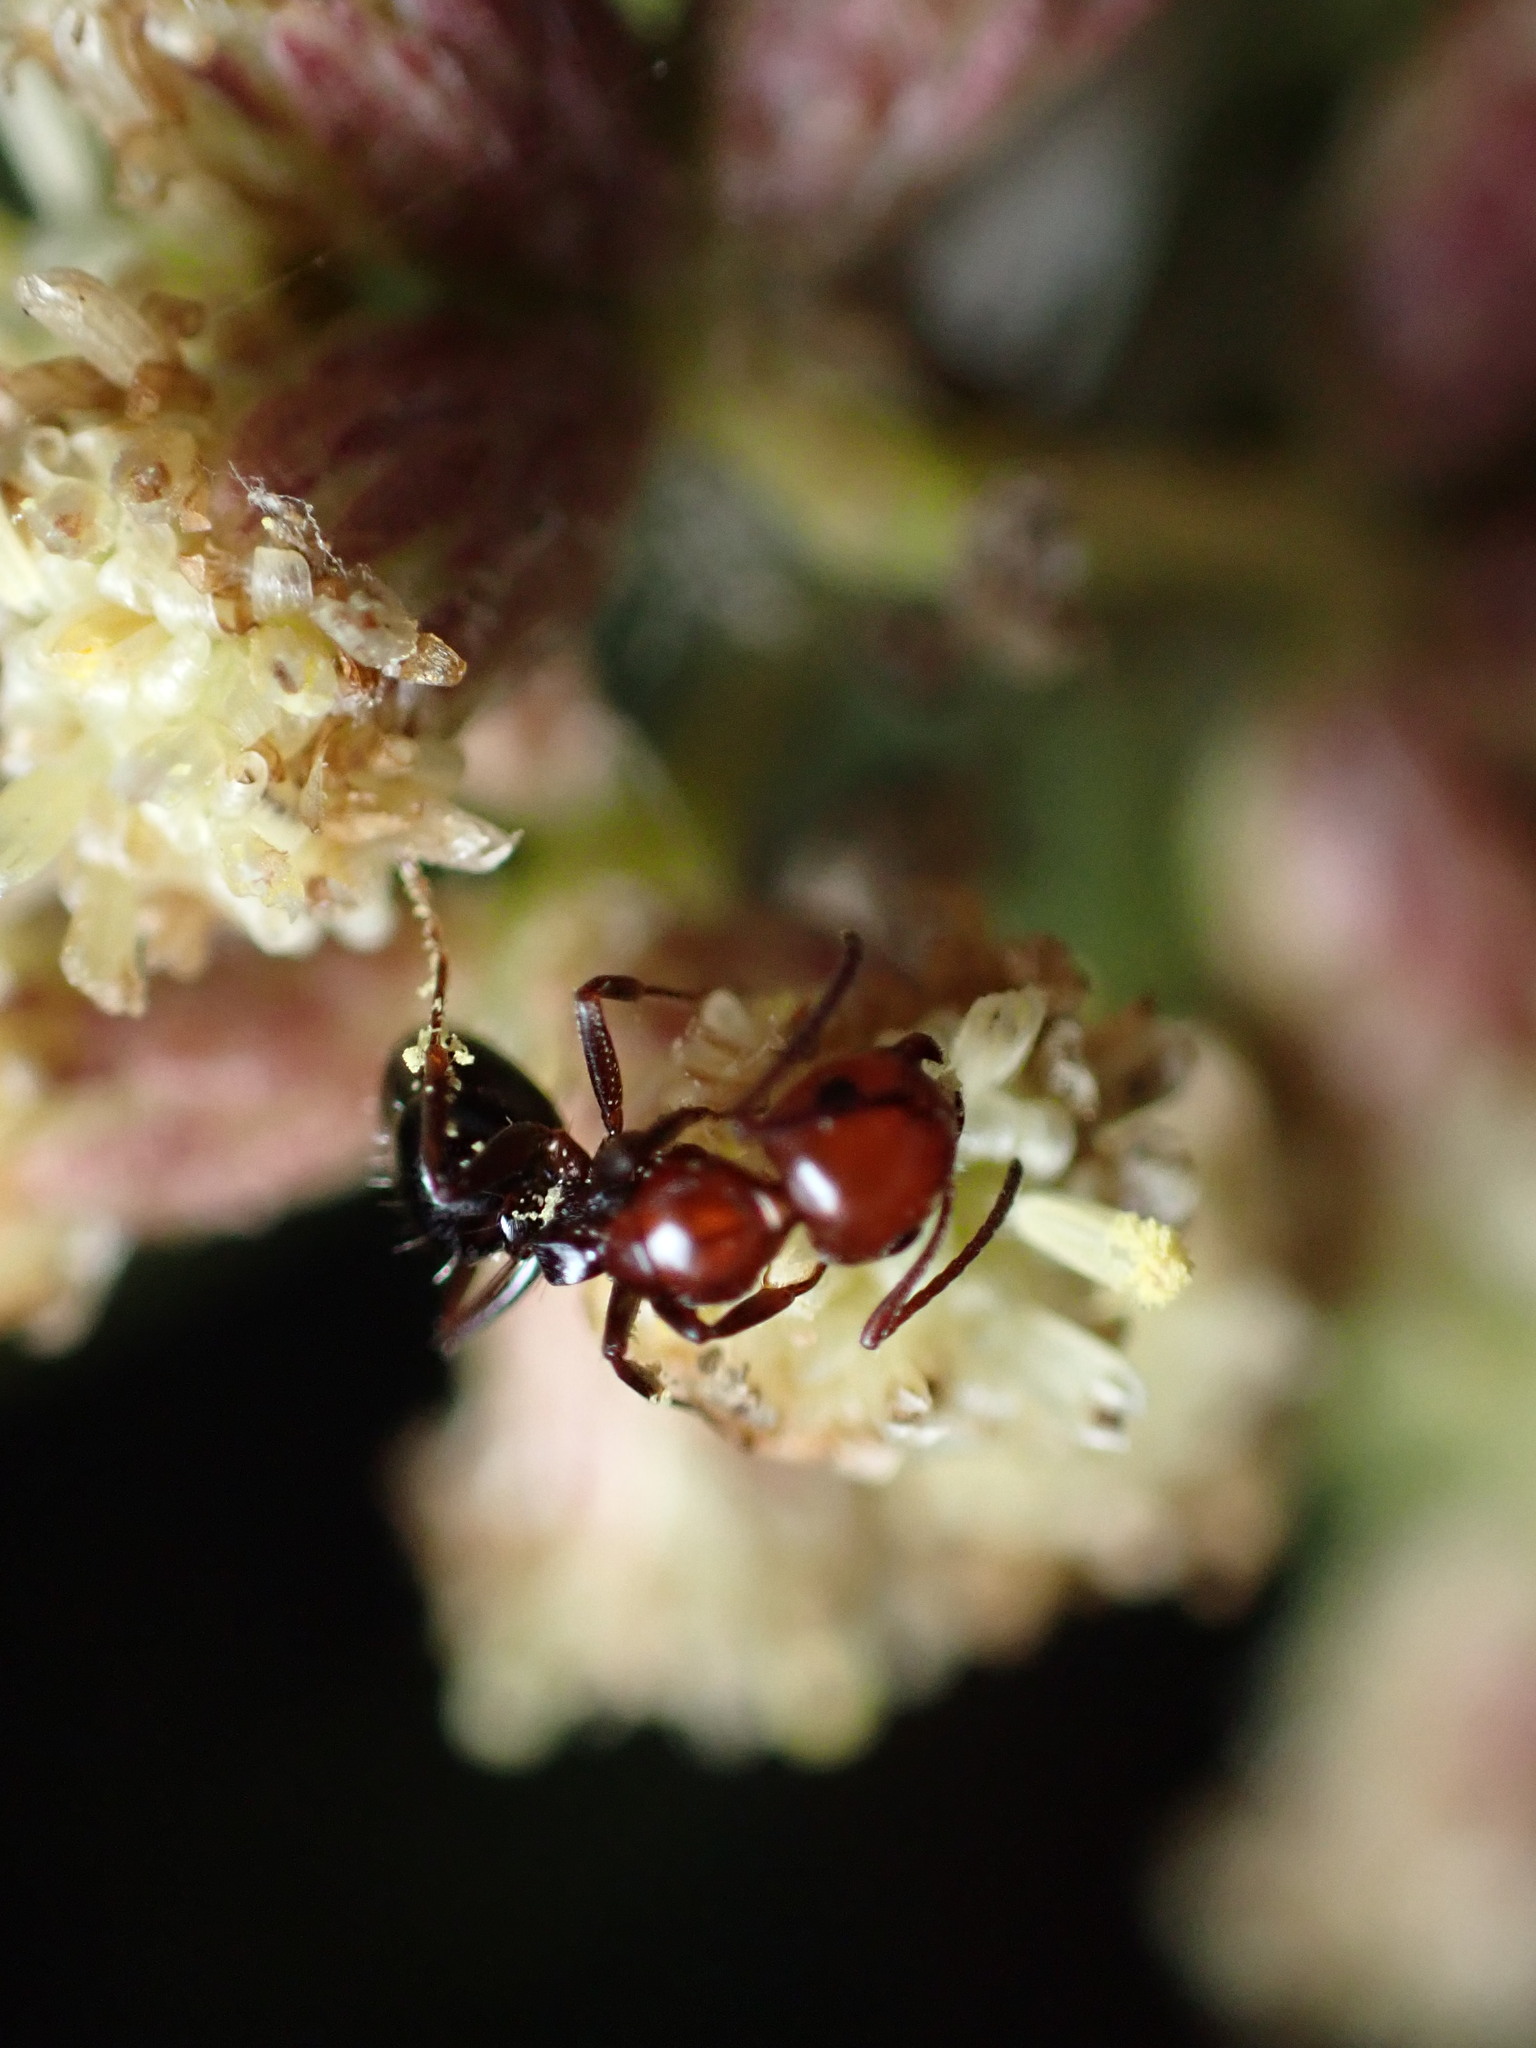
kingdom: Animalia
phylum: Arthropoda
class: Insecta
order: Hymenoptera
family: Formicidae
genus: Camponotus
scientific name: Camponotus lateralis
